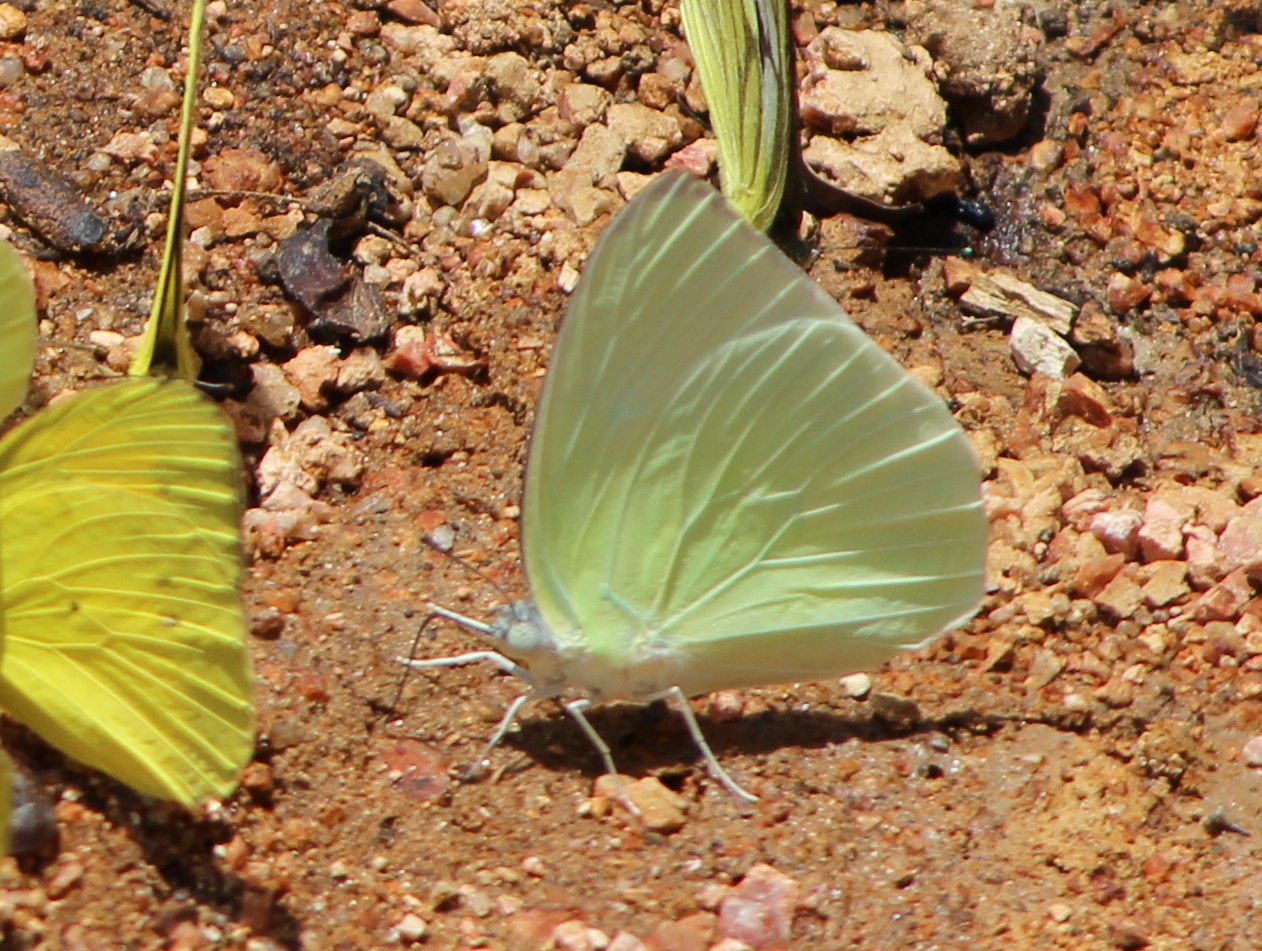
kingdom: Animalia
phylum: Arthropoda
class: Insecta
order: Lepidoptera
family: Pieridae
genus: Catopsilia
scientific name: Catopsilia pomona
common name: Common emigrant
